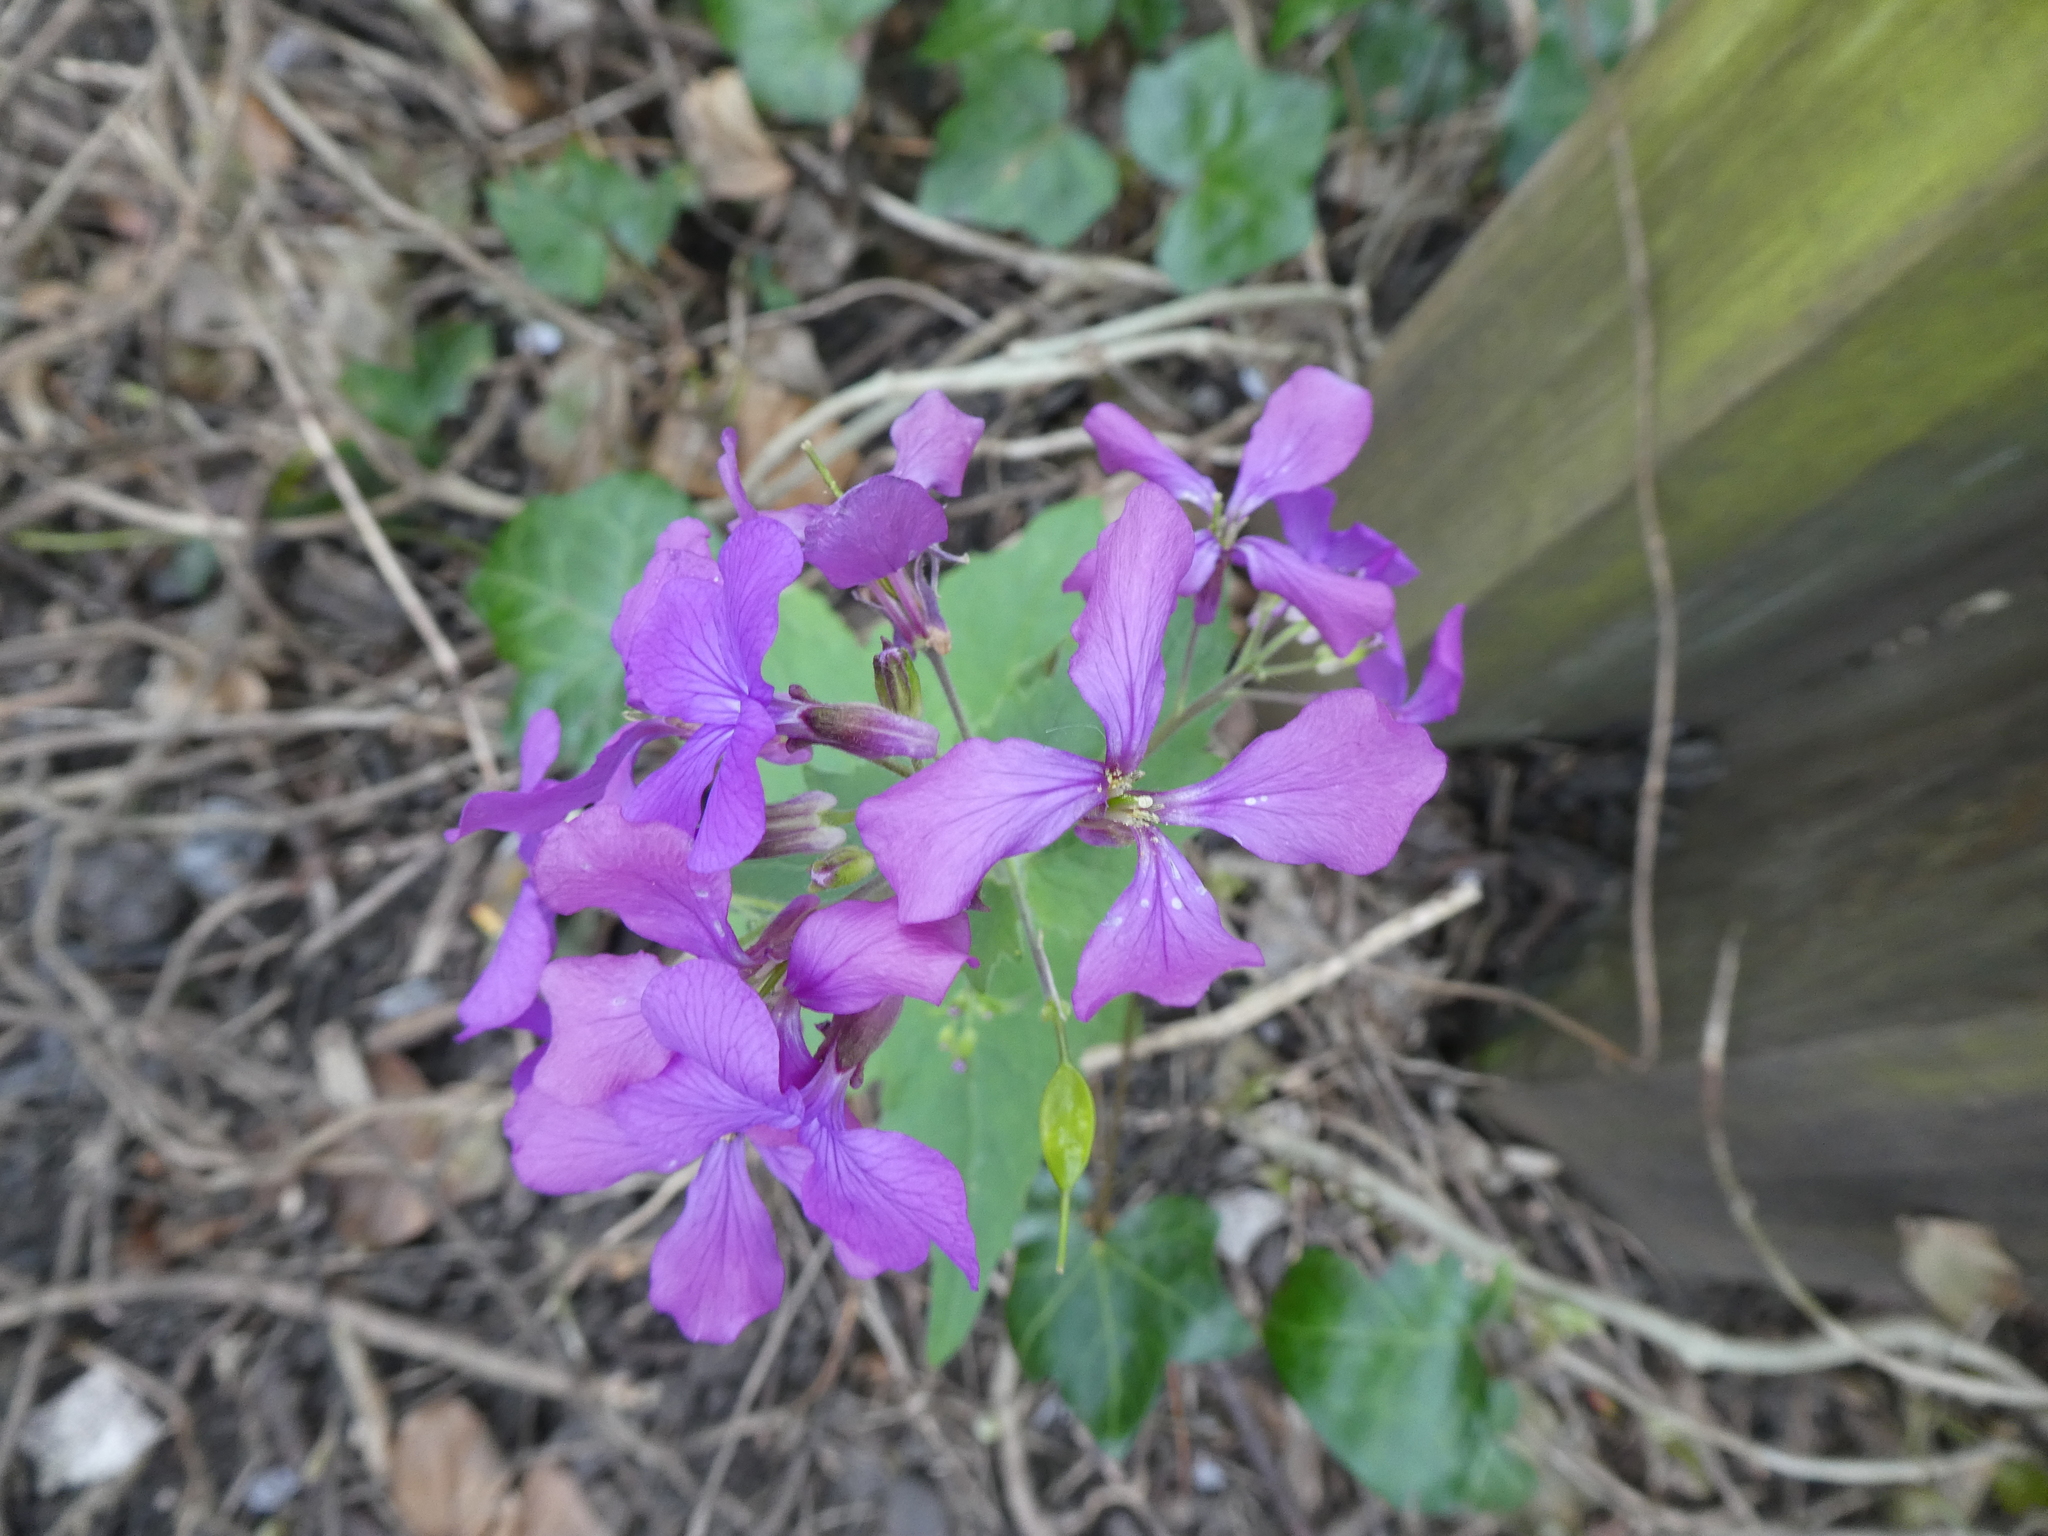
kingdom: Plantae
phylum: Tracheophyta
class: Magnoliopsida
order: Brassicales
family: Brassicaceae
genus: Lunaria
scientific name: Lunaria annua
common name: Honesty
